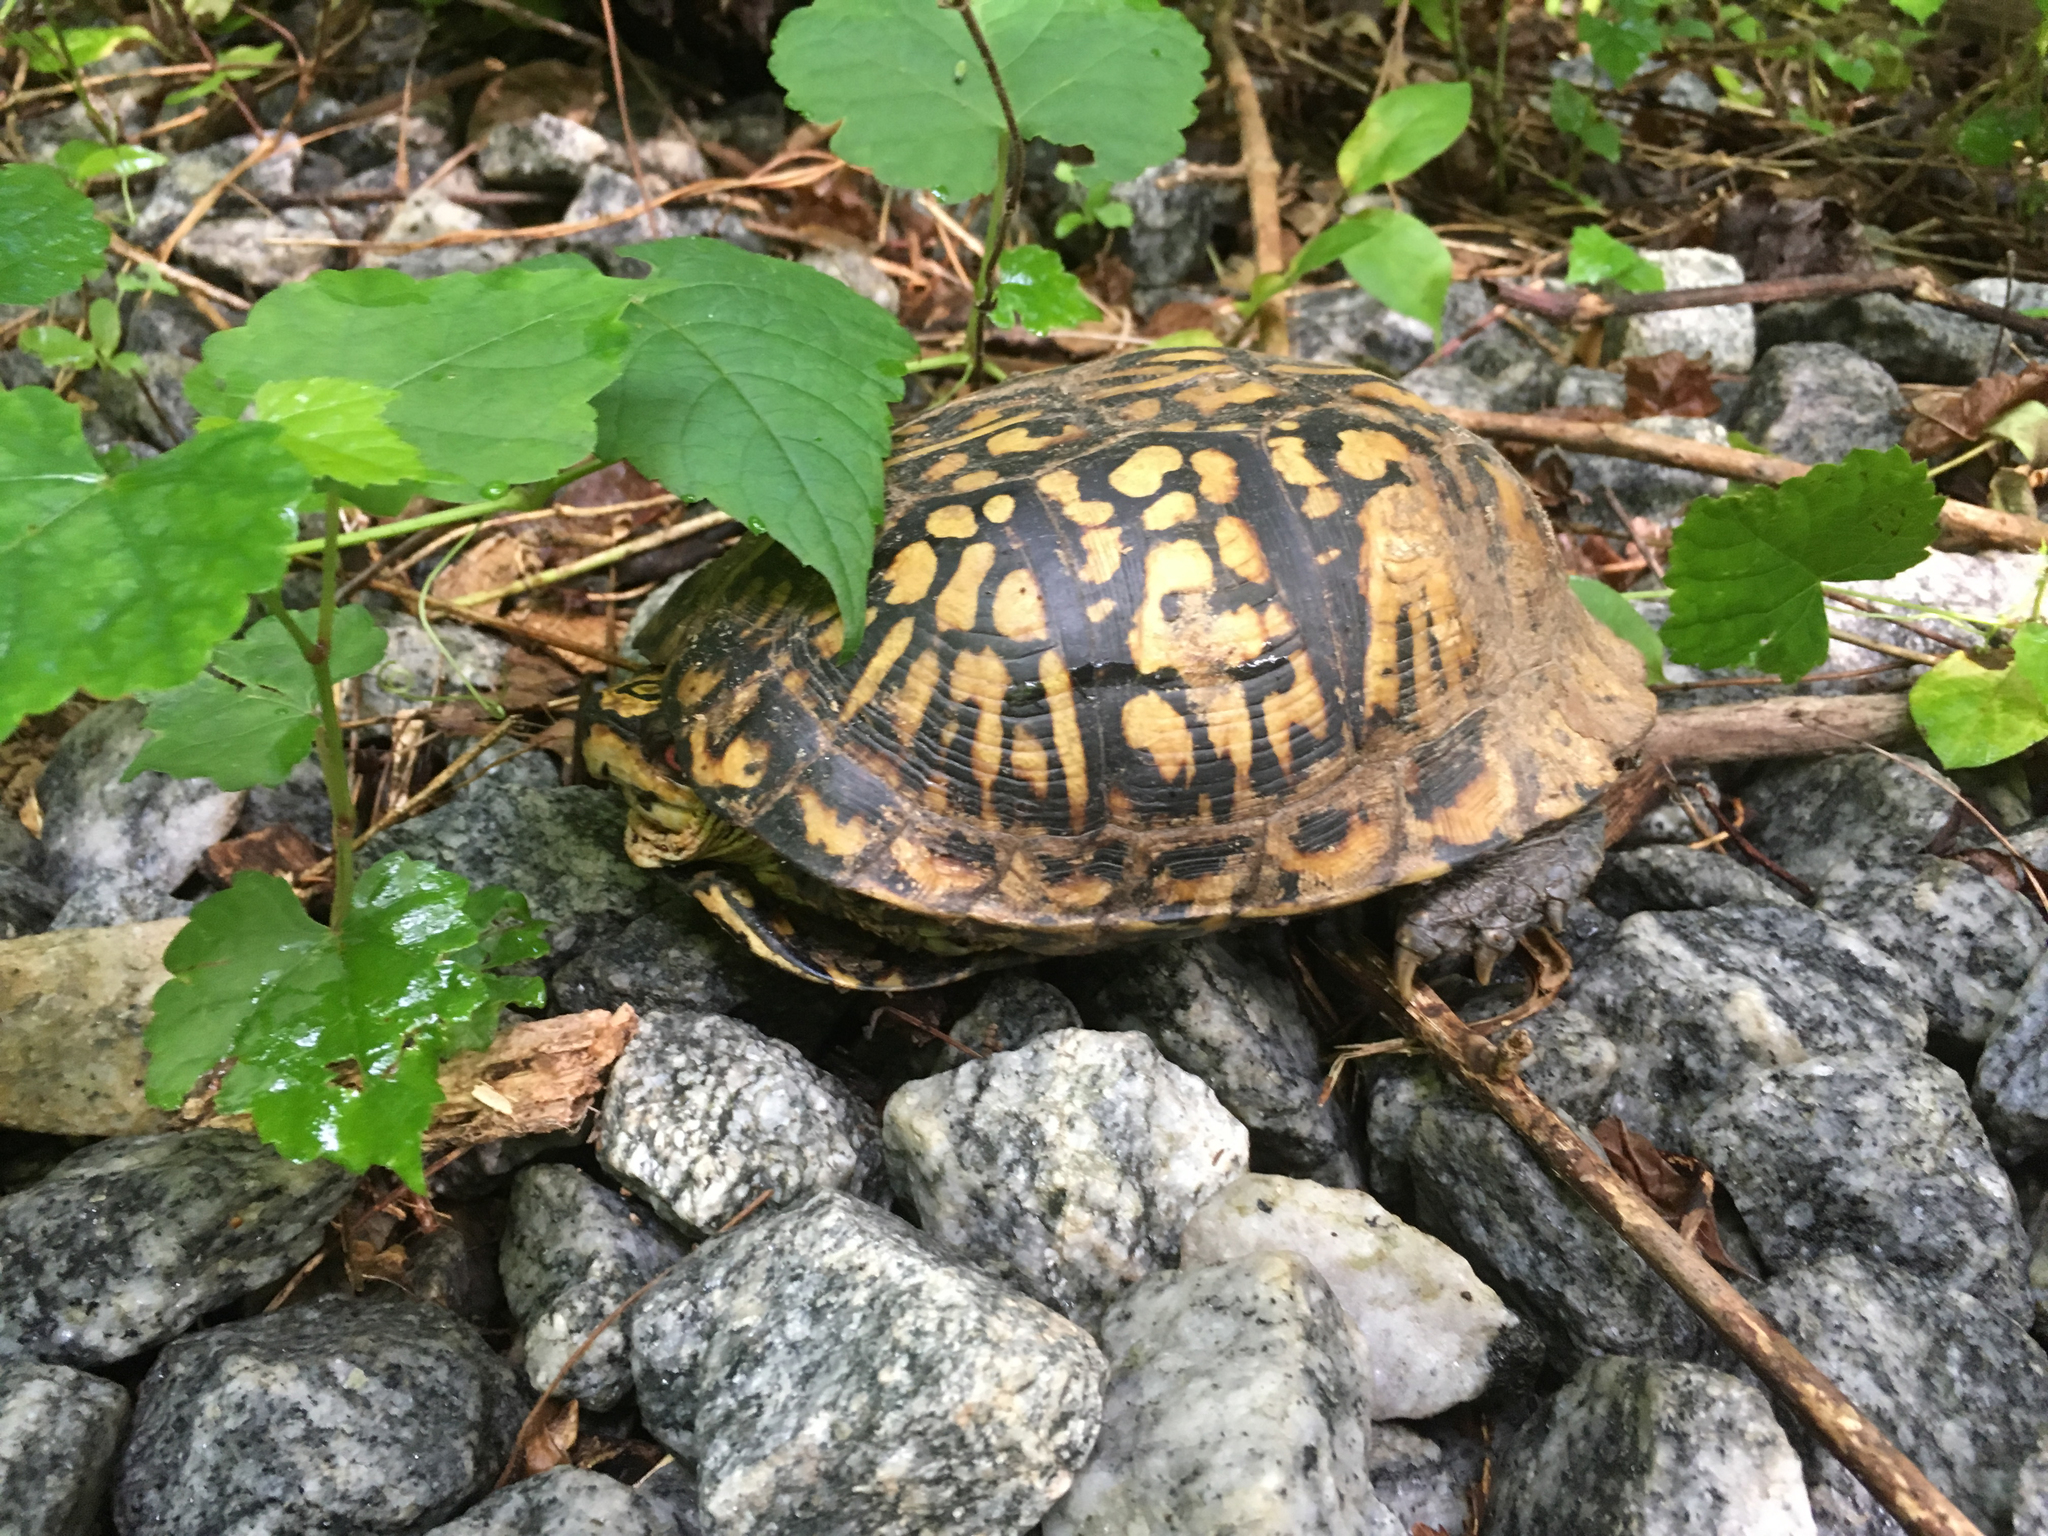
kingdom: Animalia
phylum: Chordata
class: Testudines
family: Emydidae
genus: Terrapene
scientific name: Terrapene carolina
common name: Common box turtle
